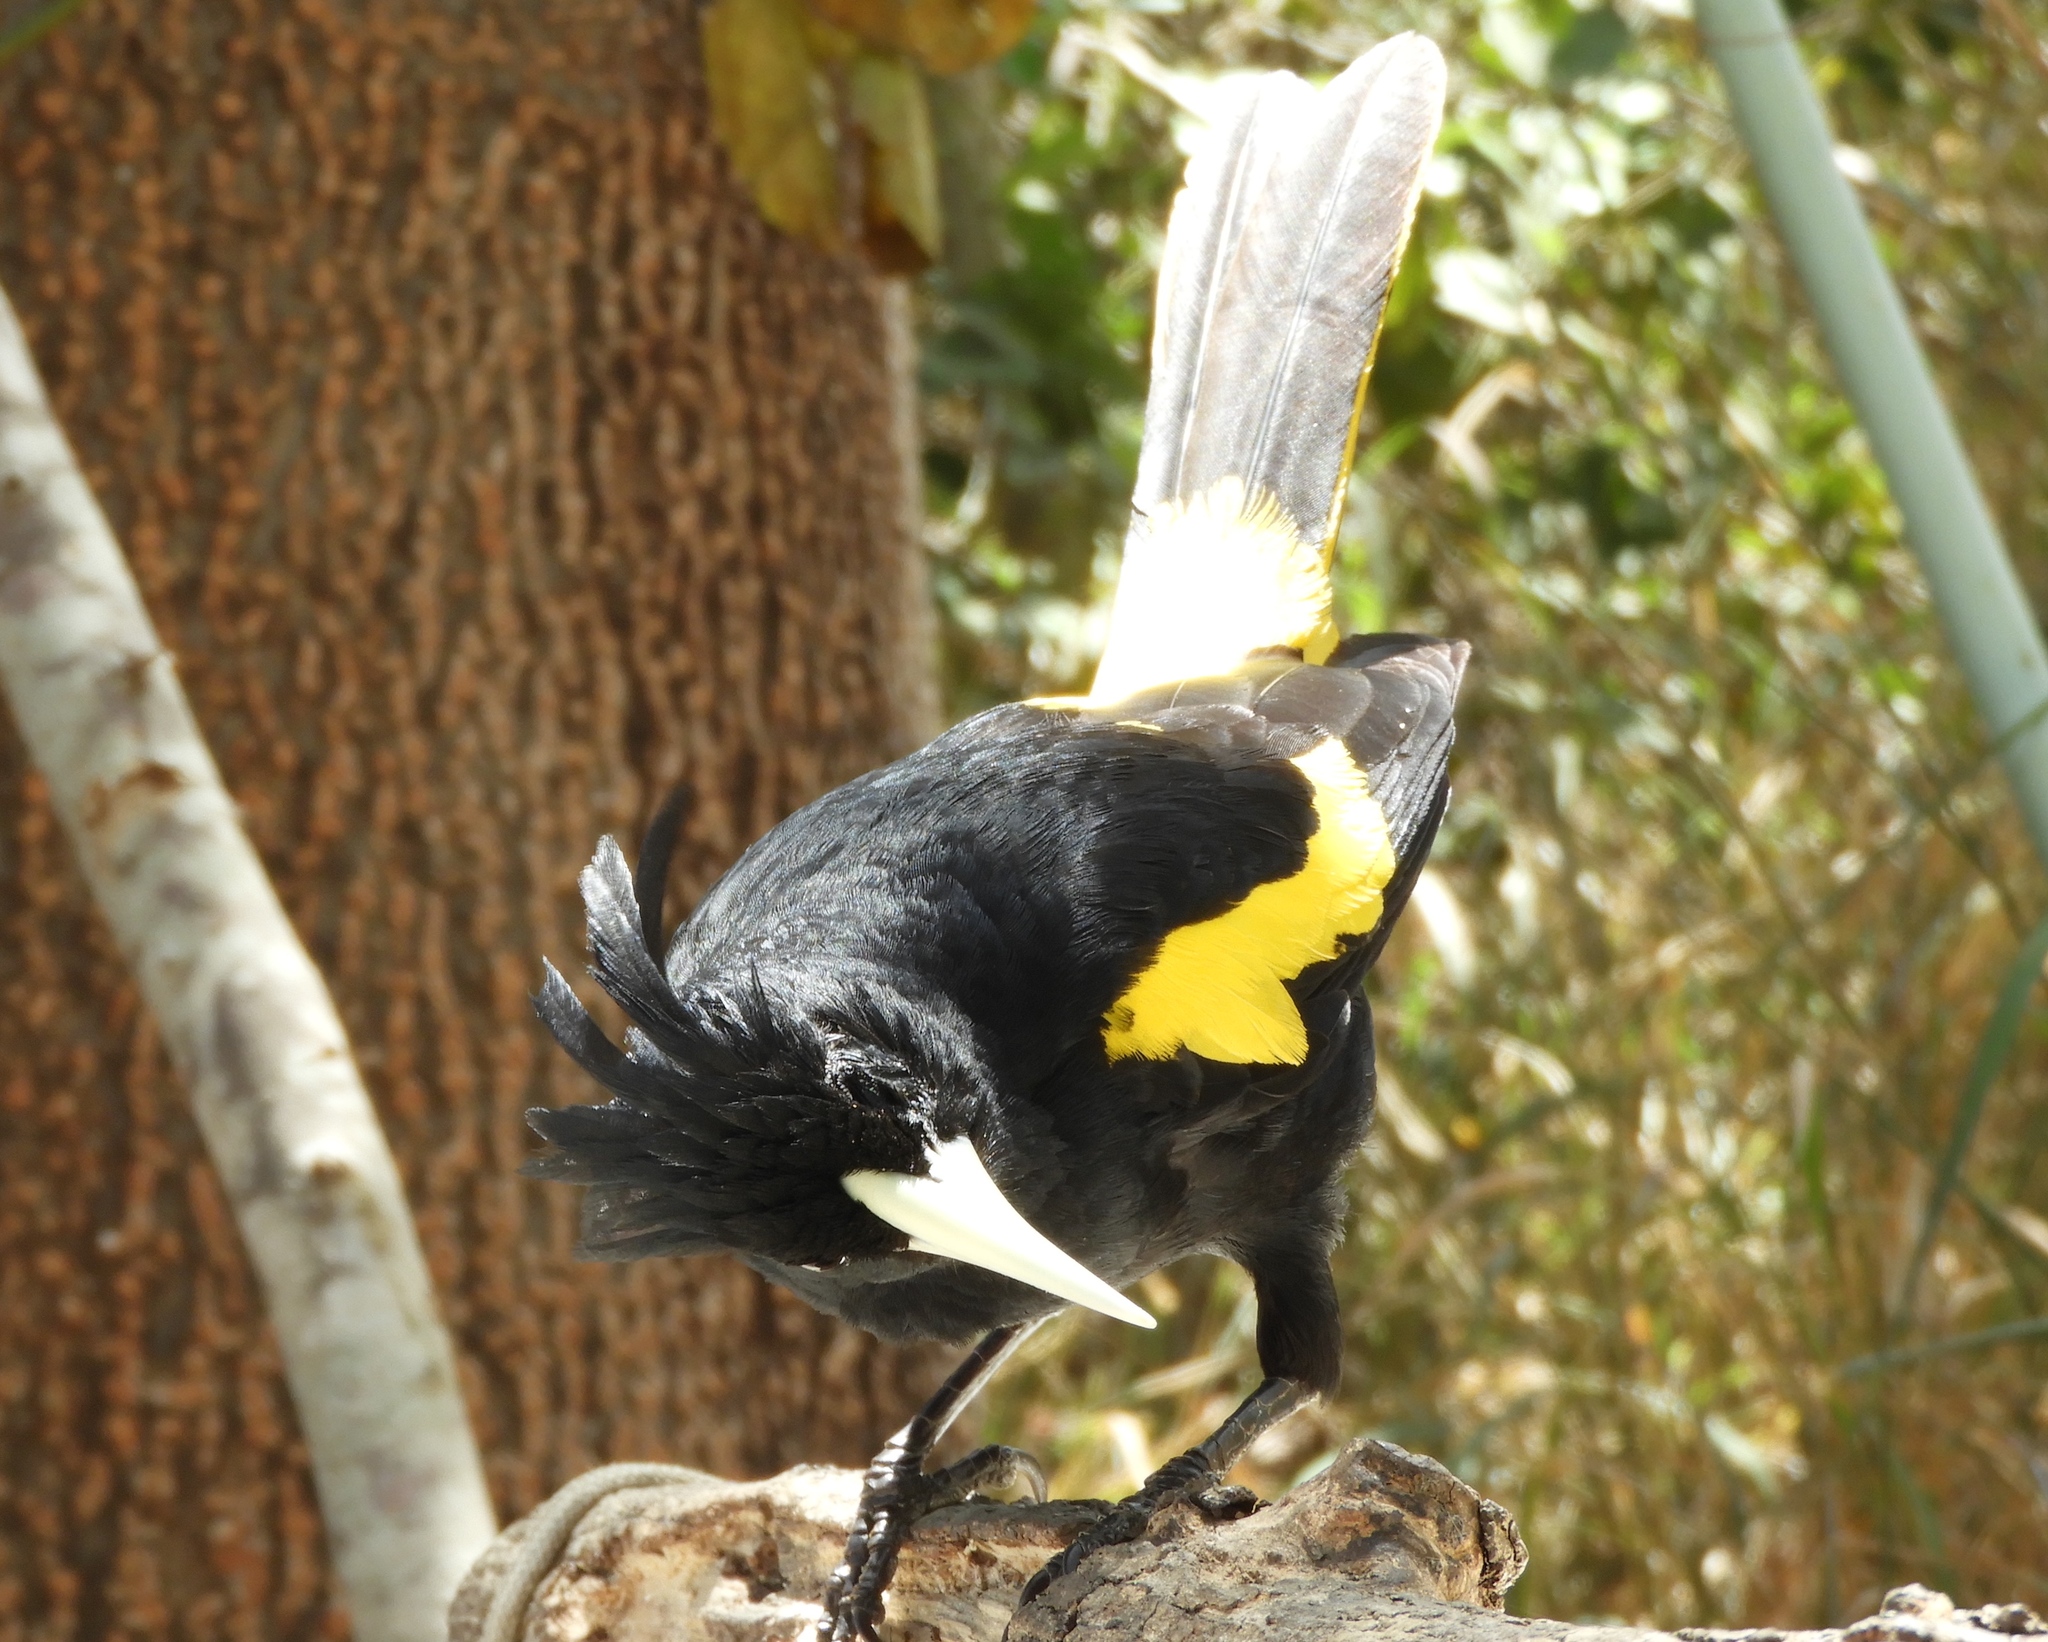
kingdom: Animalia
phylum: Chordata
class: Aves
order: Passeriformes
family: Icteridae
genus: Cacicus
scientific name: Cacicus melanicterus
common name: Yellow-winged cacique
